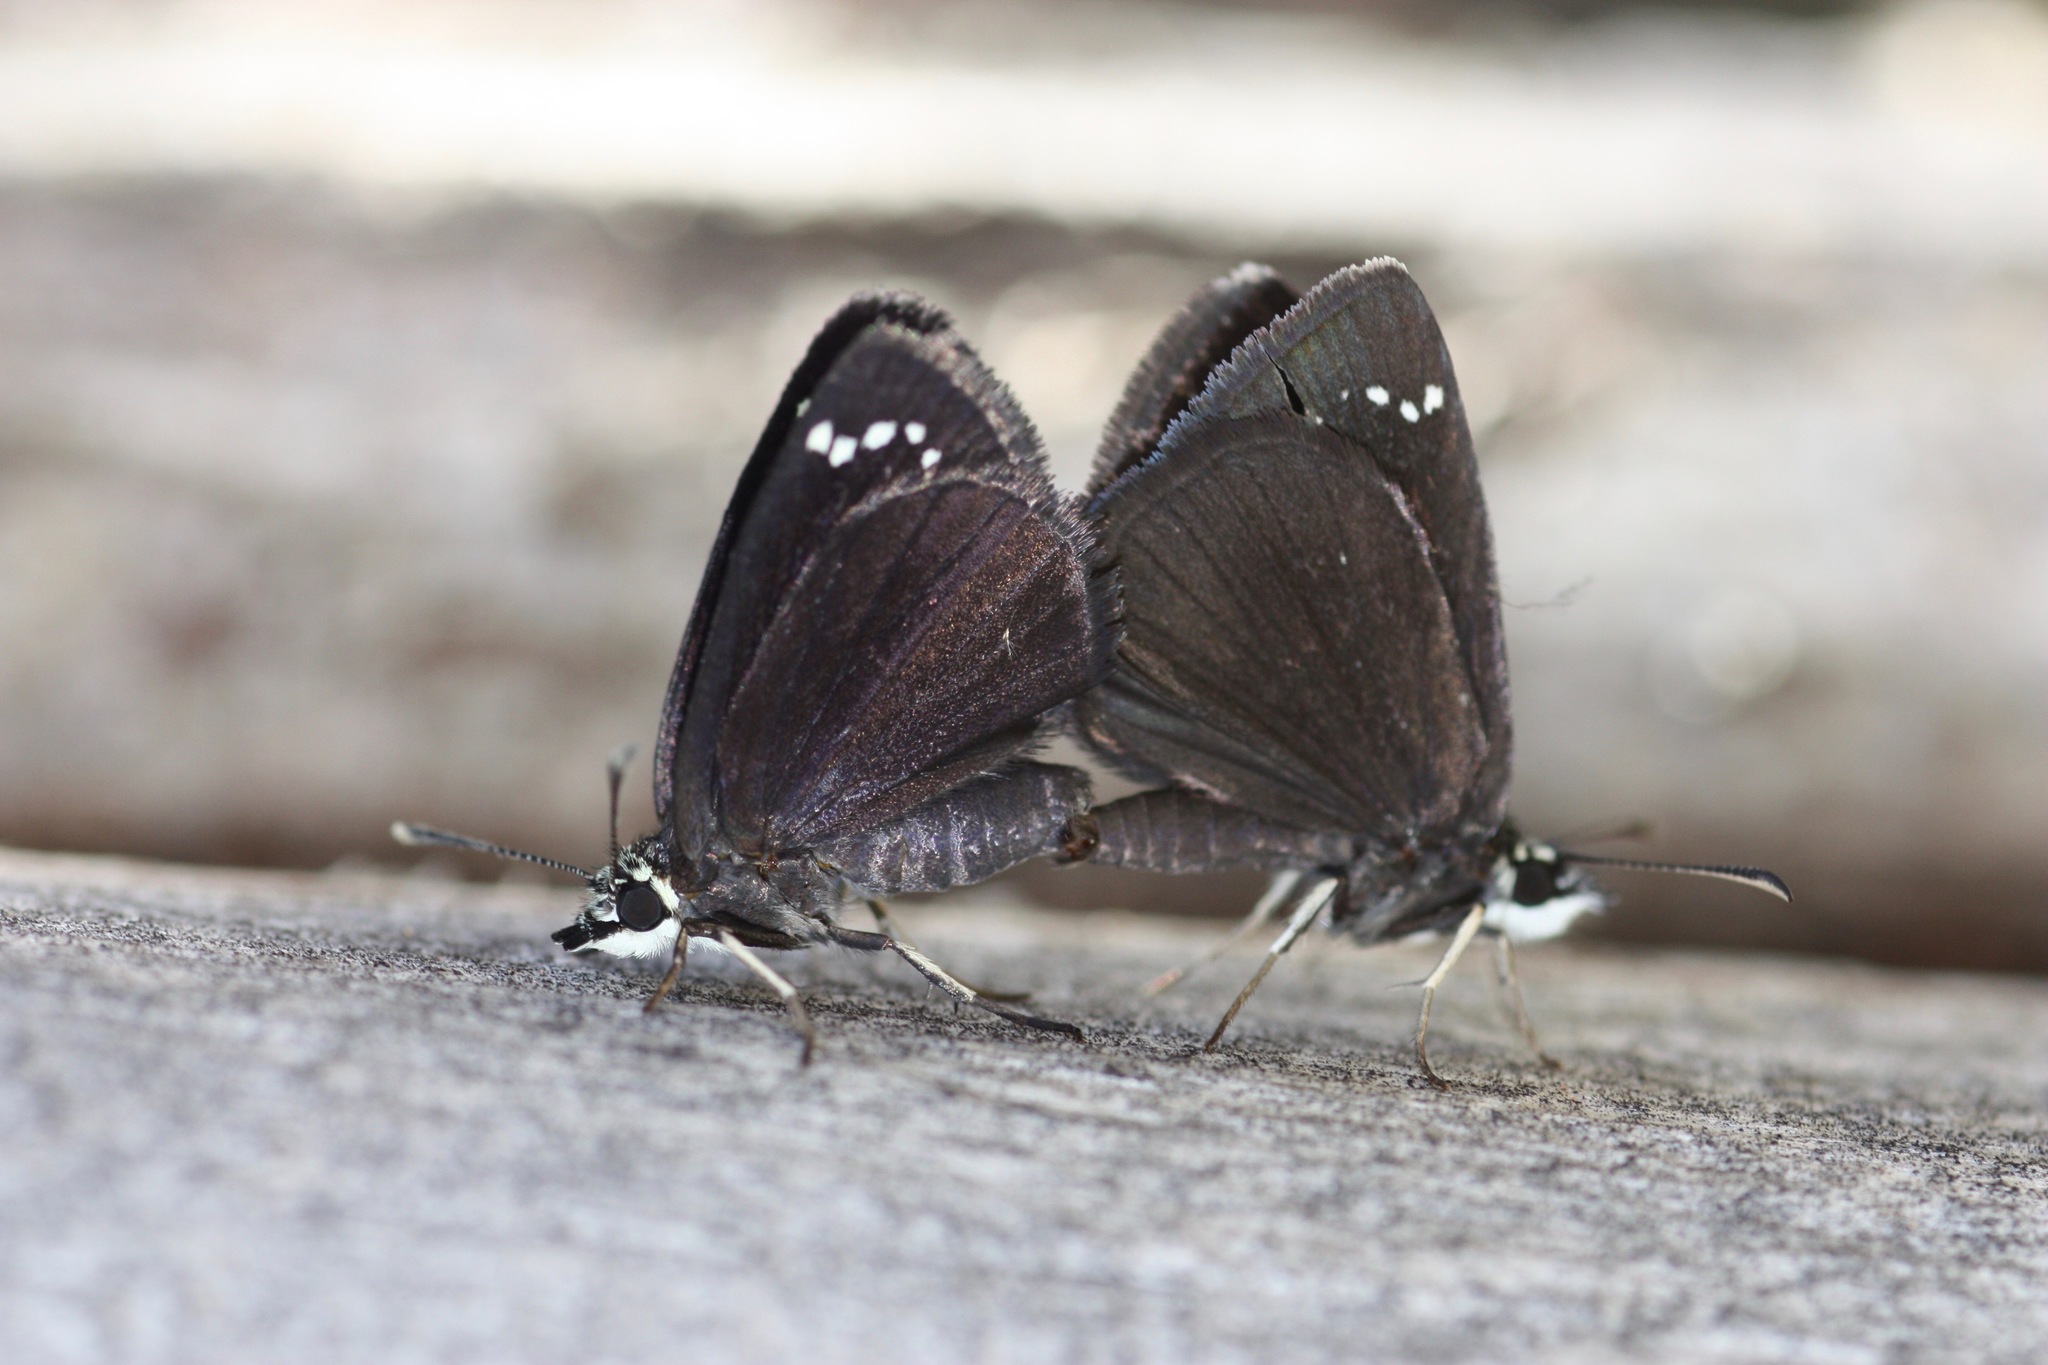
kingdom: Animalia
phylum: Arthropoda
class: Insecta
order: Lepidoptera
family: Hesperiidae
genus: Pholisora
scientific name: Pholisora catullus
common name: Common sootywing
